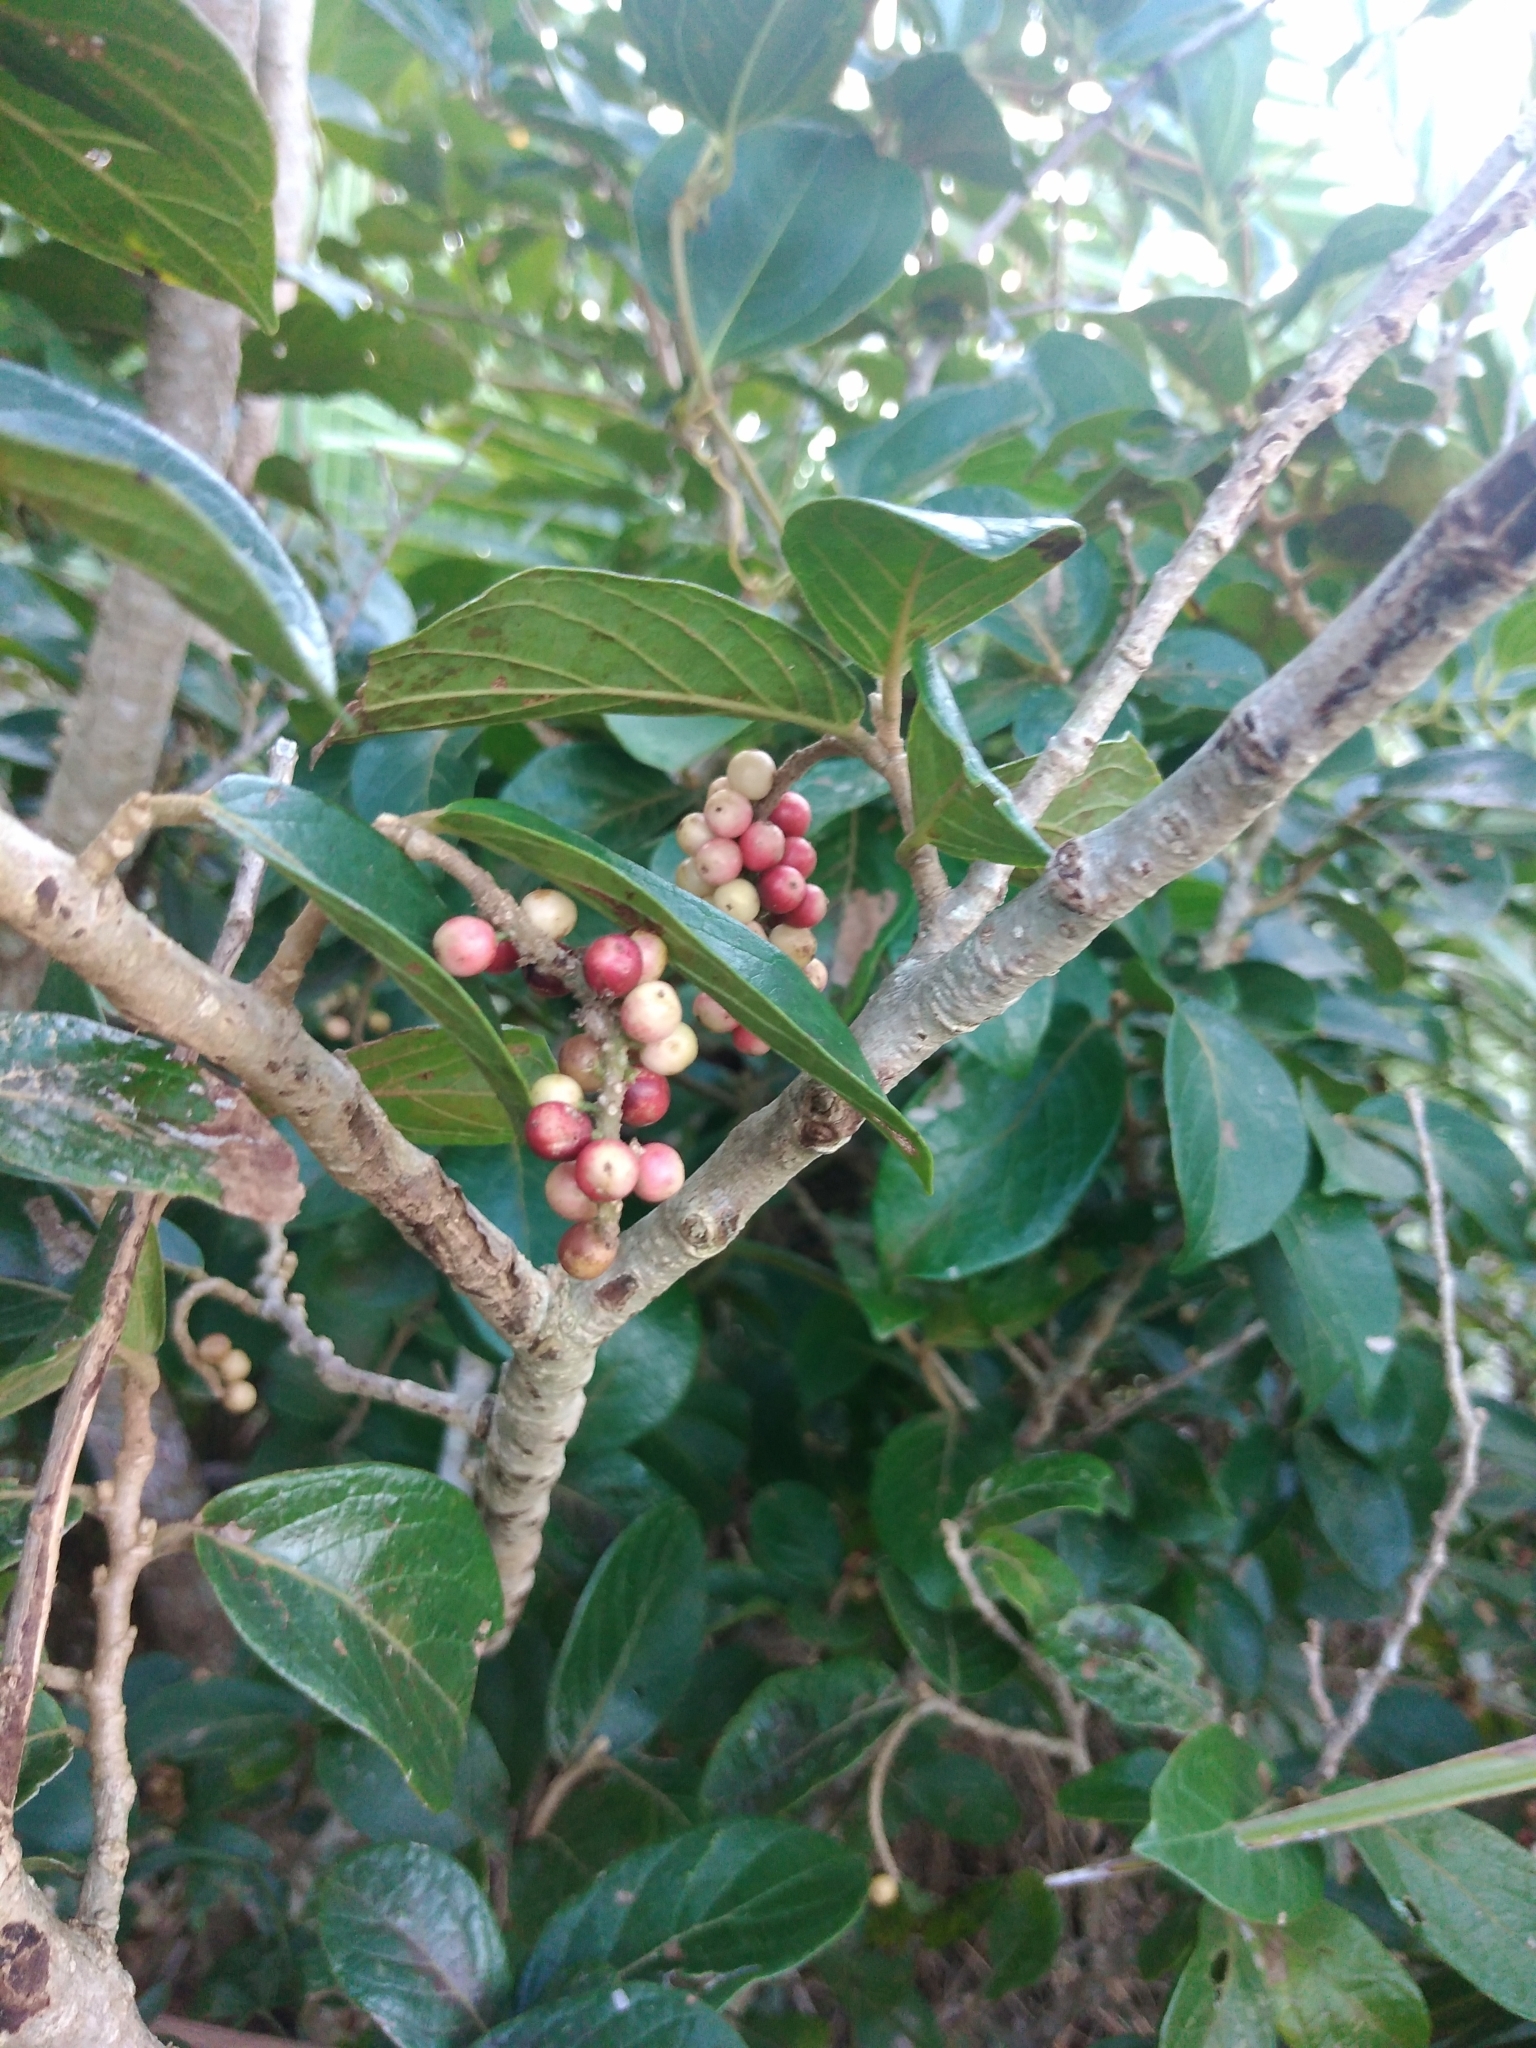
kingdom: Plantae
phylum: Tracheophyta
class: Magnoliopsida
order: Malpighiales
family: Phyllanthaceae
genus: Antidesma
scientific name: Antidesma venosum
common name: Tassel-berry
